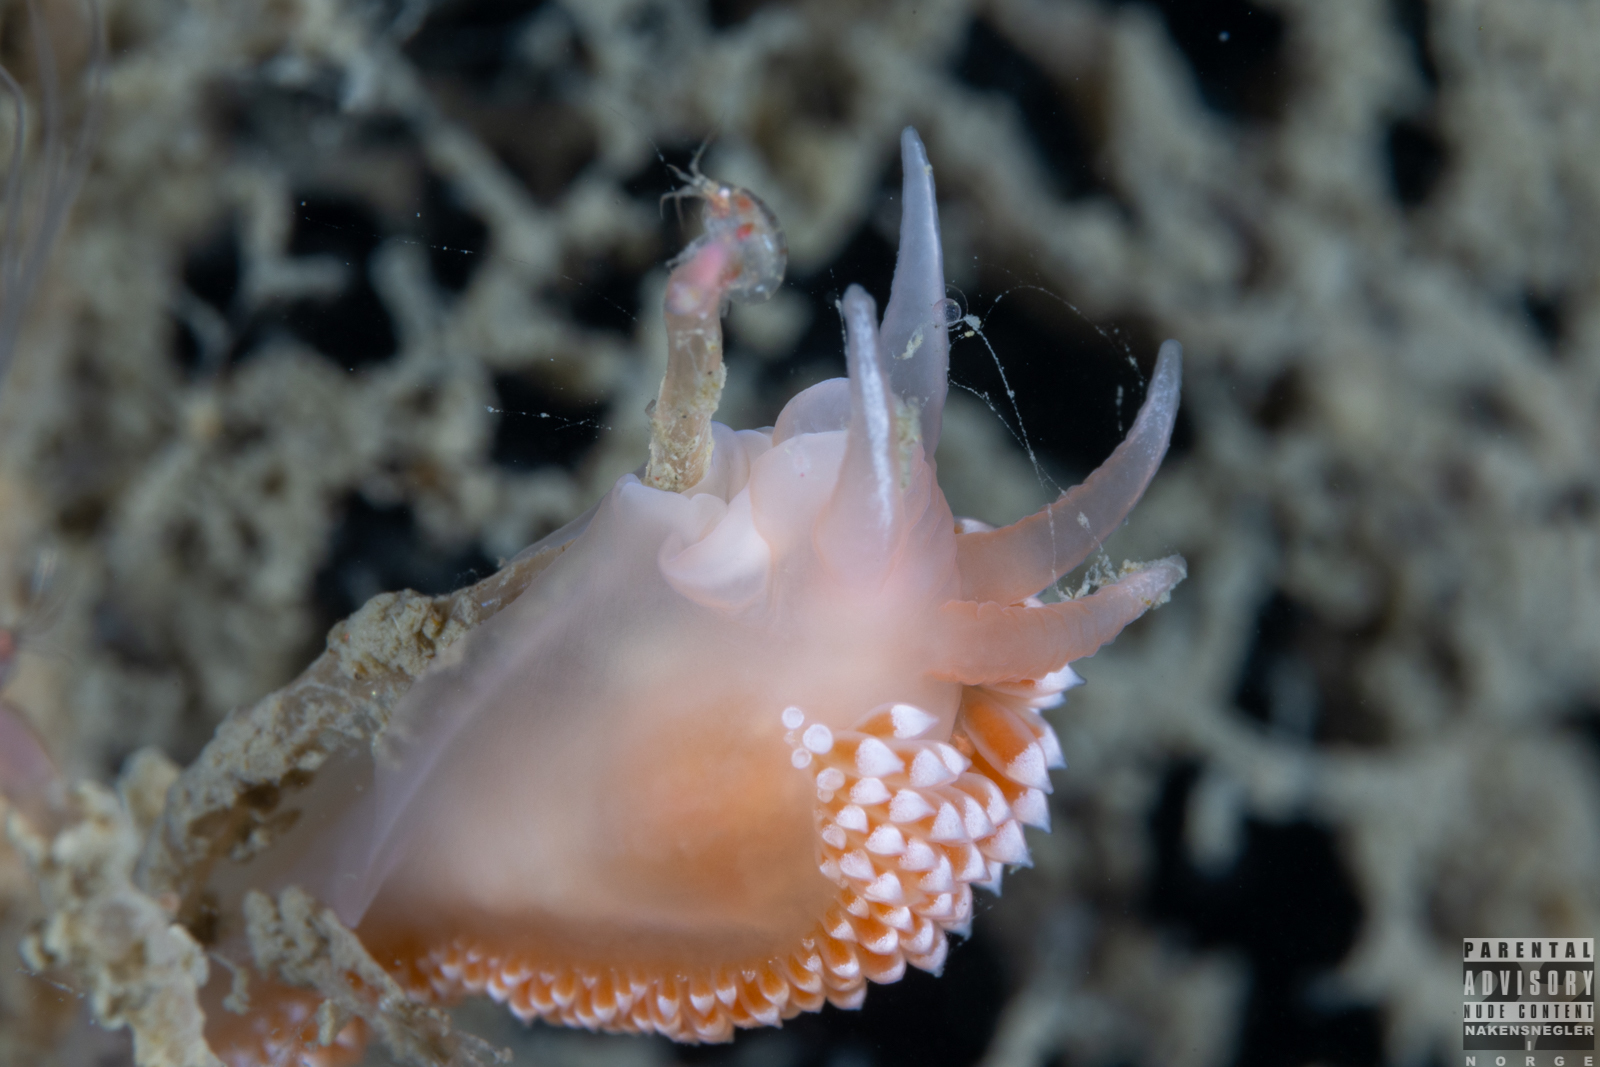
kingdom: Animalia
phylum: Mollusca
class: Gastropoda
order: Nudibranchia
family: Coryphellidae
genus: Coryphella
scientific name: Coryphella verrucosa
